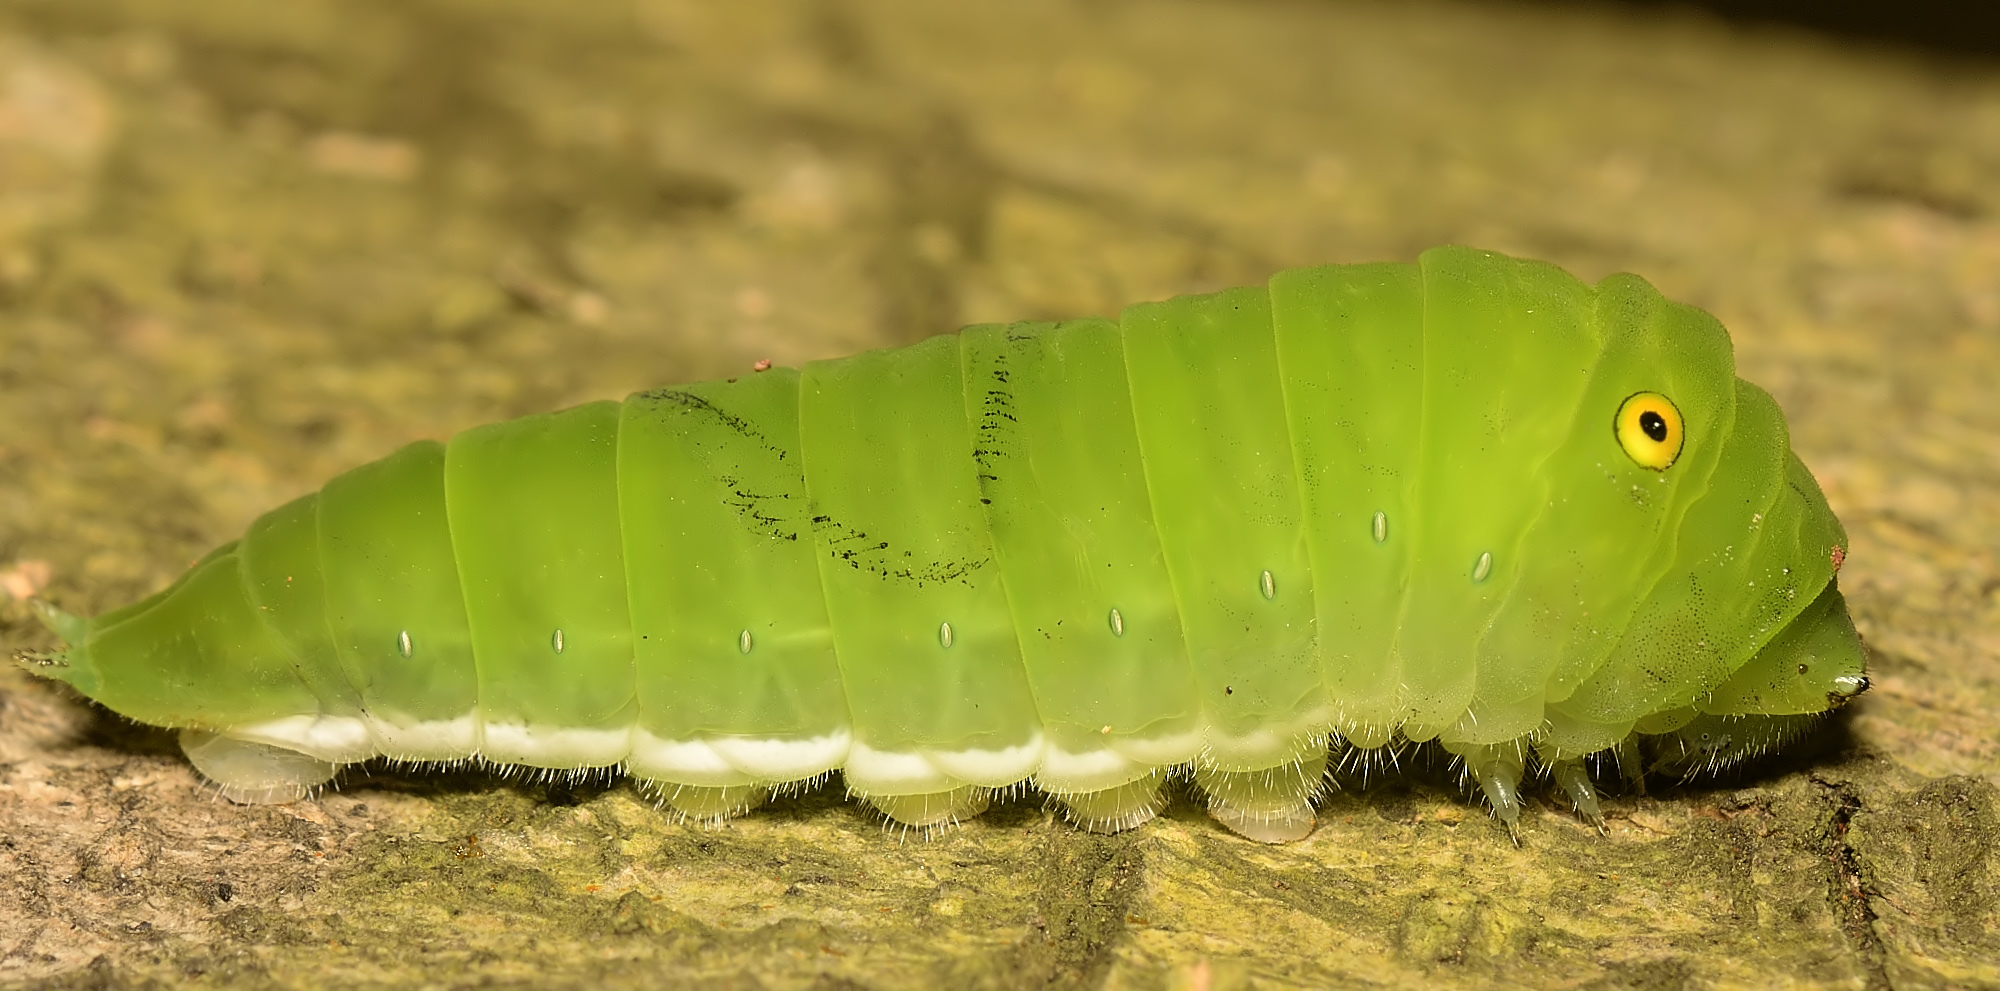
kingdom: Animalia
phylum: Arthropoda
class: Insecta
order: Lepidoptera
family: Papilionidae
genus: Graphium
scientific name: Graphium doson
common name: Common jay
